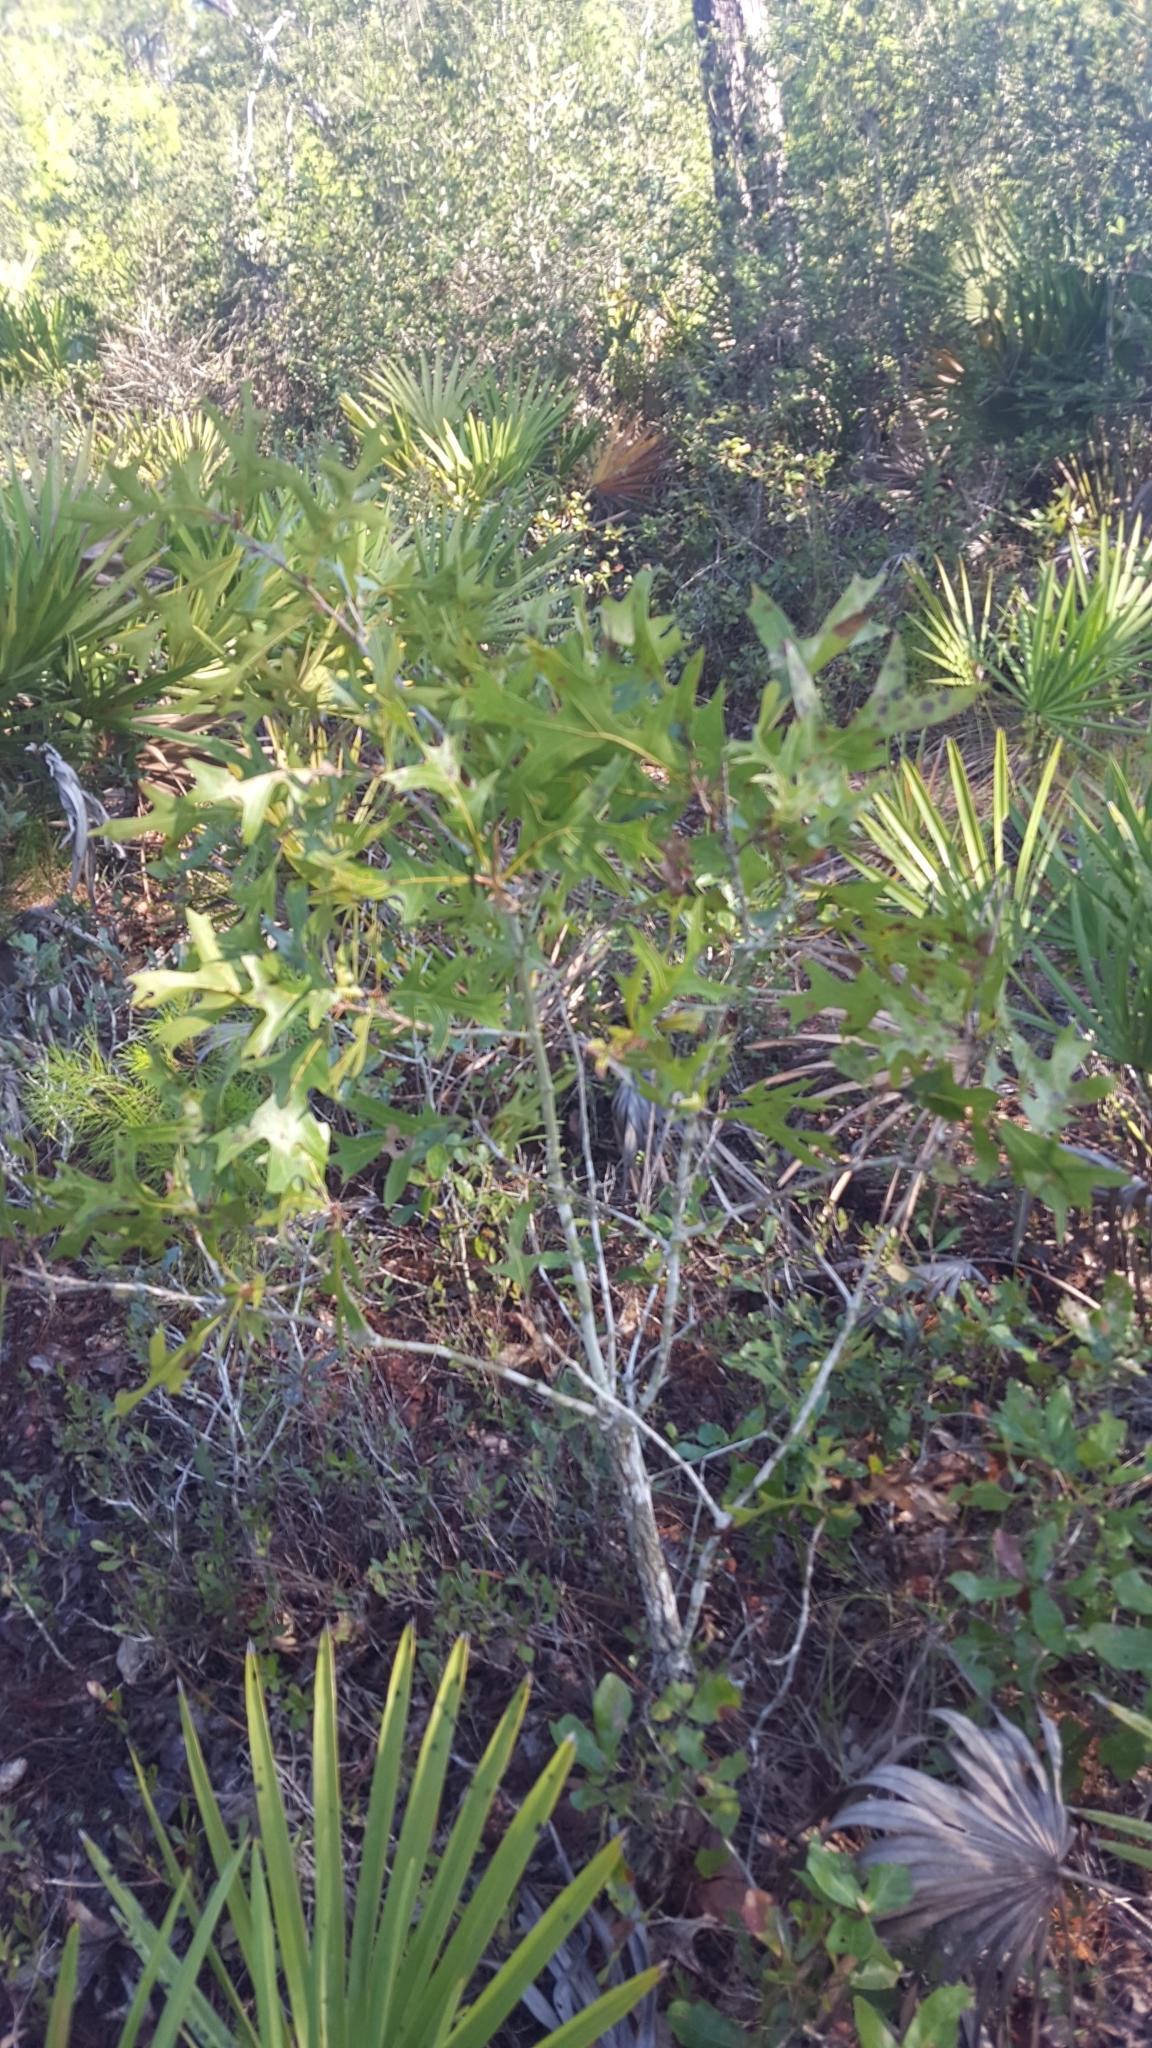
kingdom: Plantae
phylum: Tracheophyta
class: Magnoliopsida
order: Fagales
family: Fagaceae
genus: Quercus
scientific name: Quercus laevis
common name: Turkey oak
